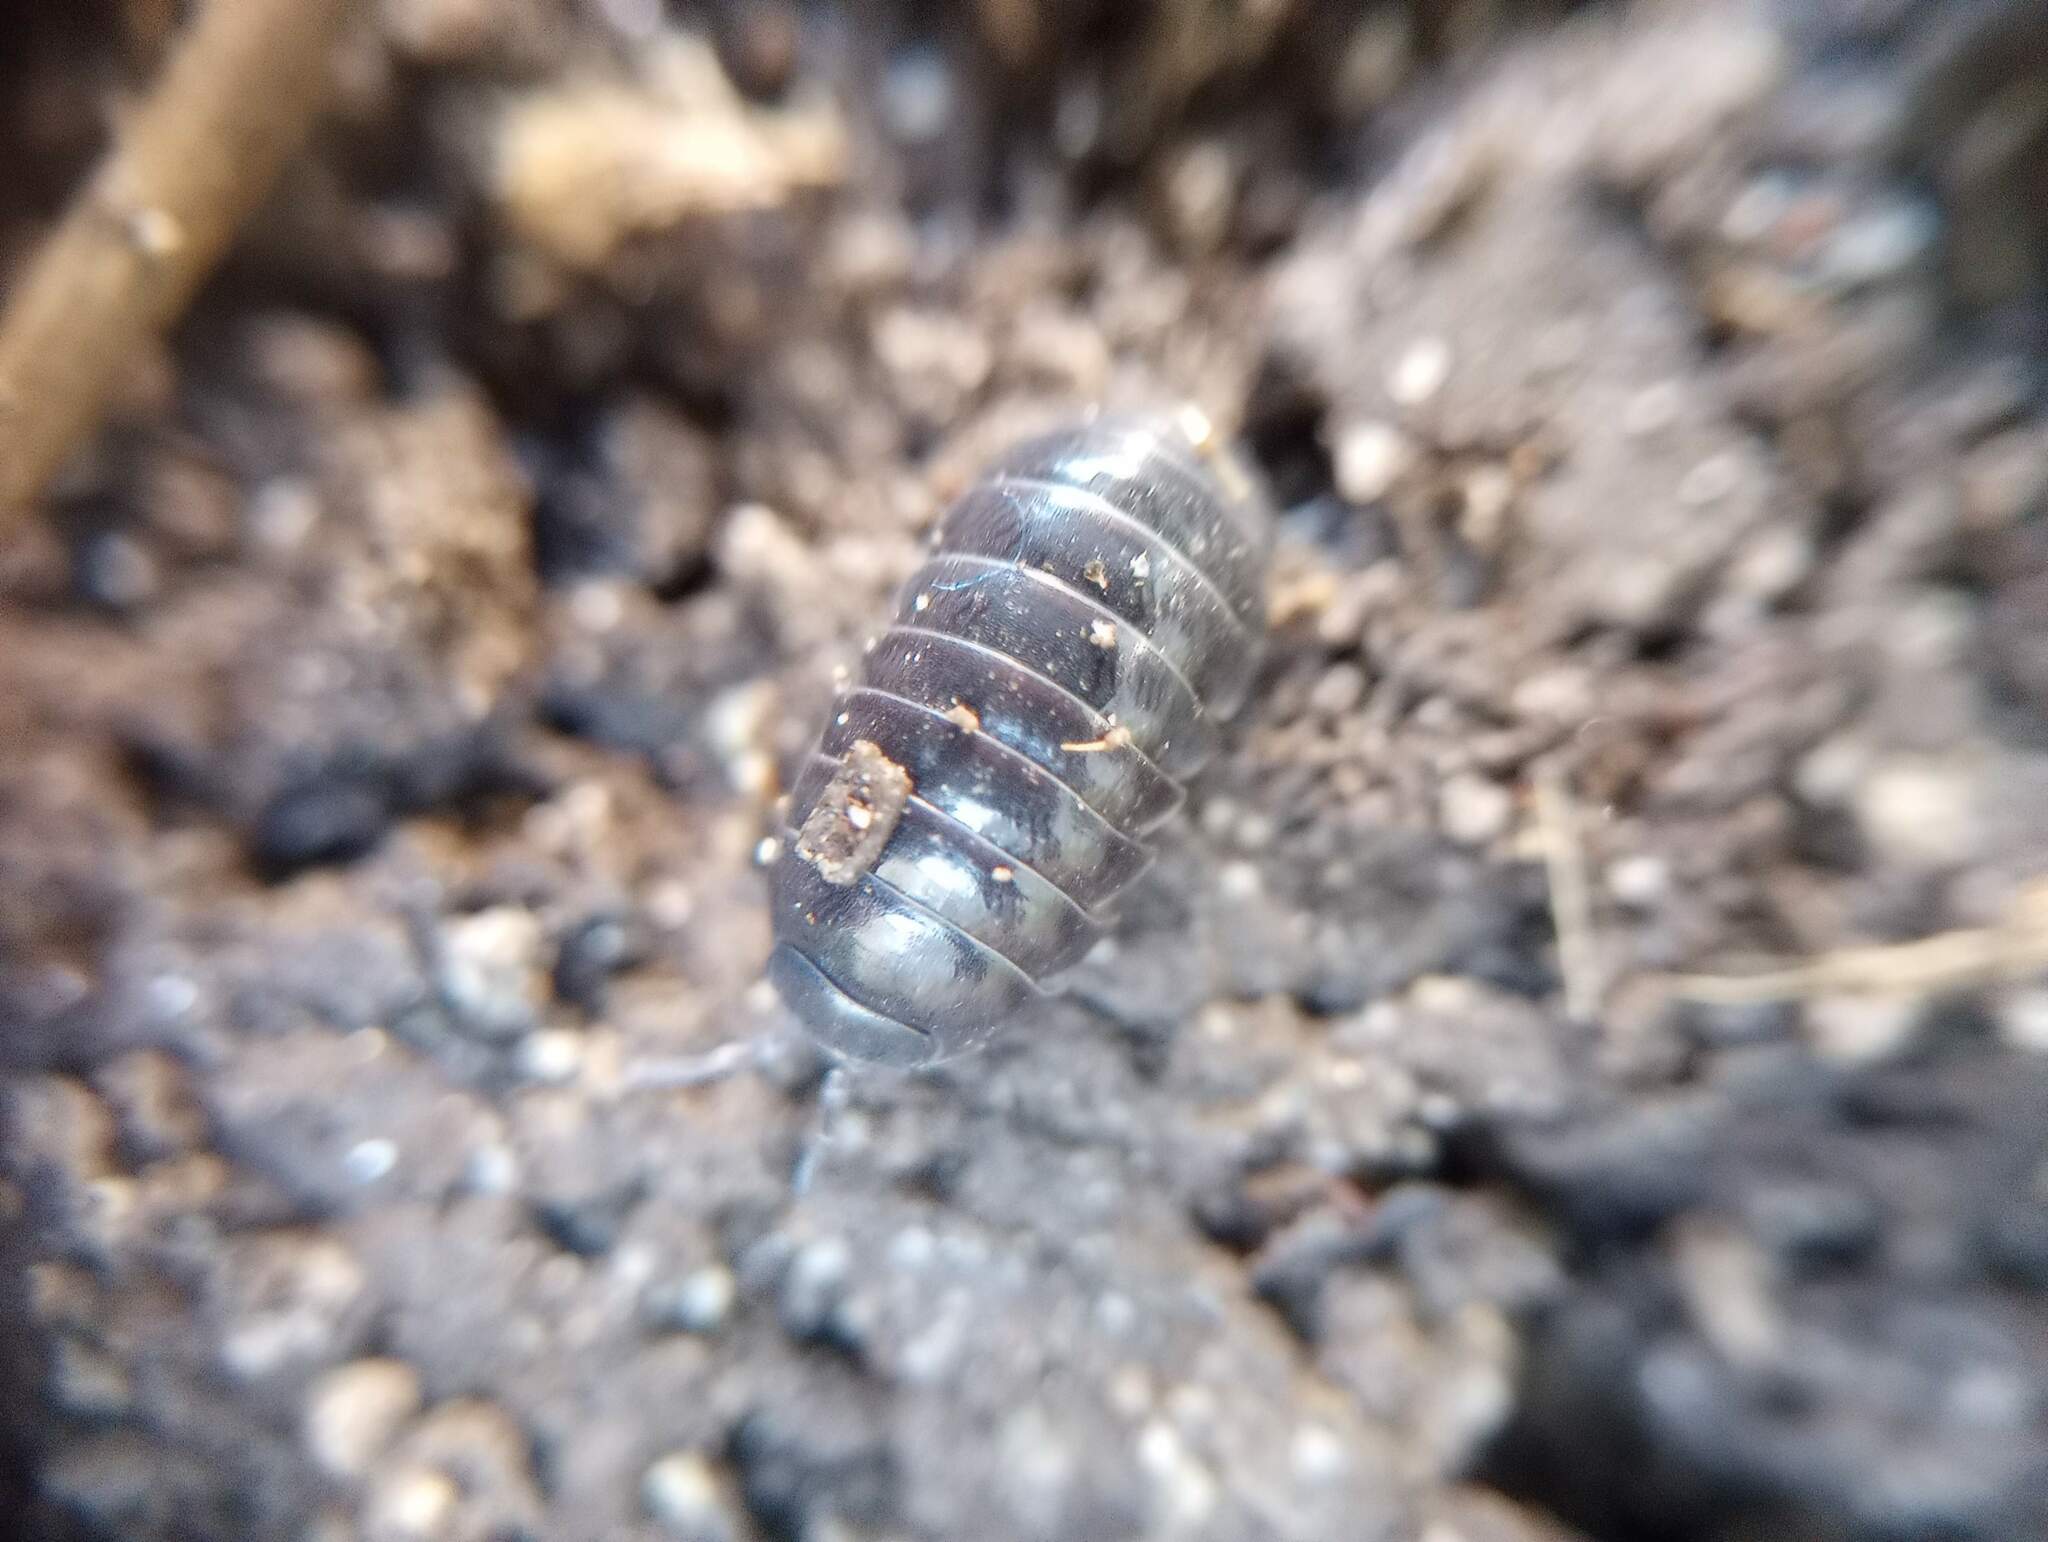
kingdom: Animalia
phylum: Arthropoda
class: Malacostraca
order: Isopoda
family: Armadillidiidae
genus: Armadillidium
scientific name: Armadillidium vulgare
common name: Common pill woodlouse
